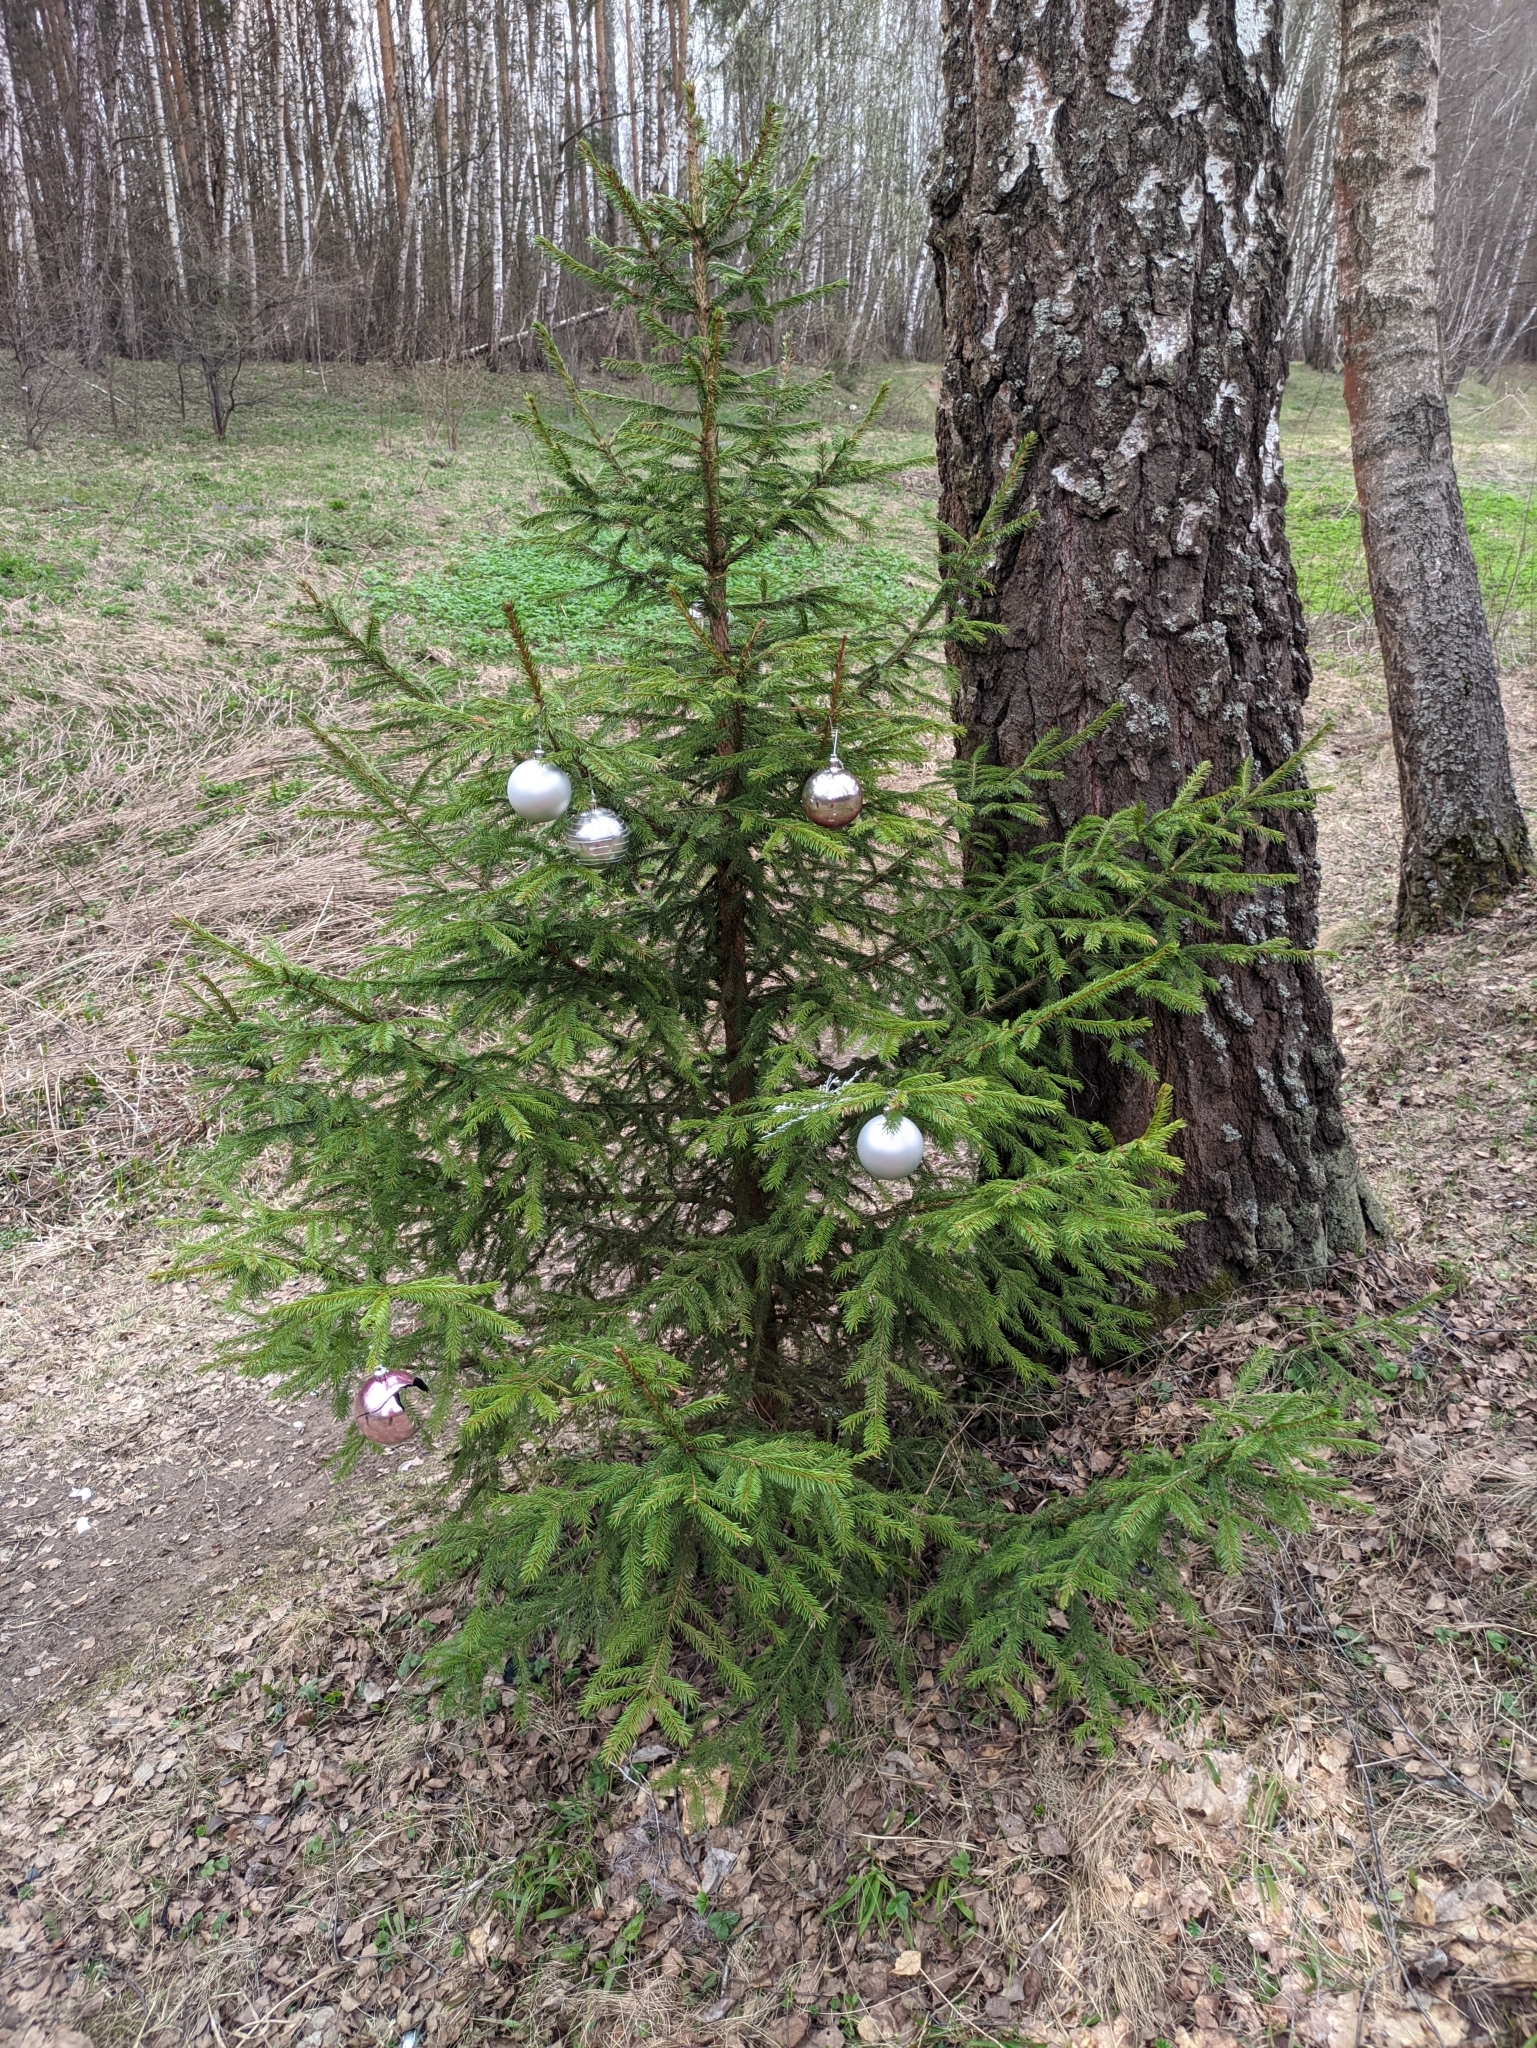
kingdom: Plantae
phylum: Tracheophyta
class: Pinopsida
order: Pinales
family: Pinaceae
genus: Picea
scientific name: Picea abies
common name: Norway spruce
